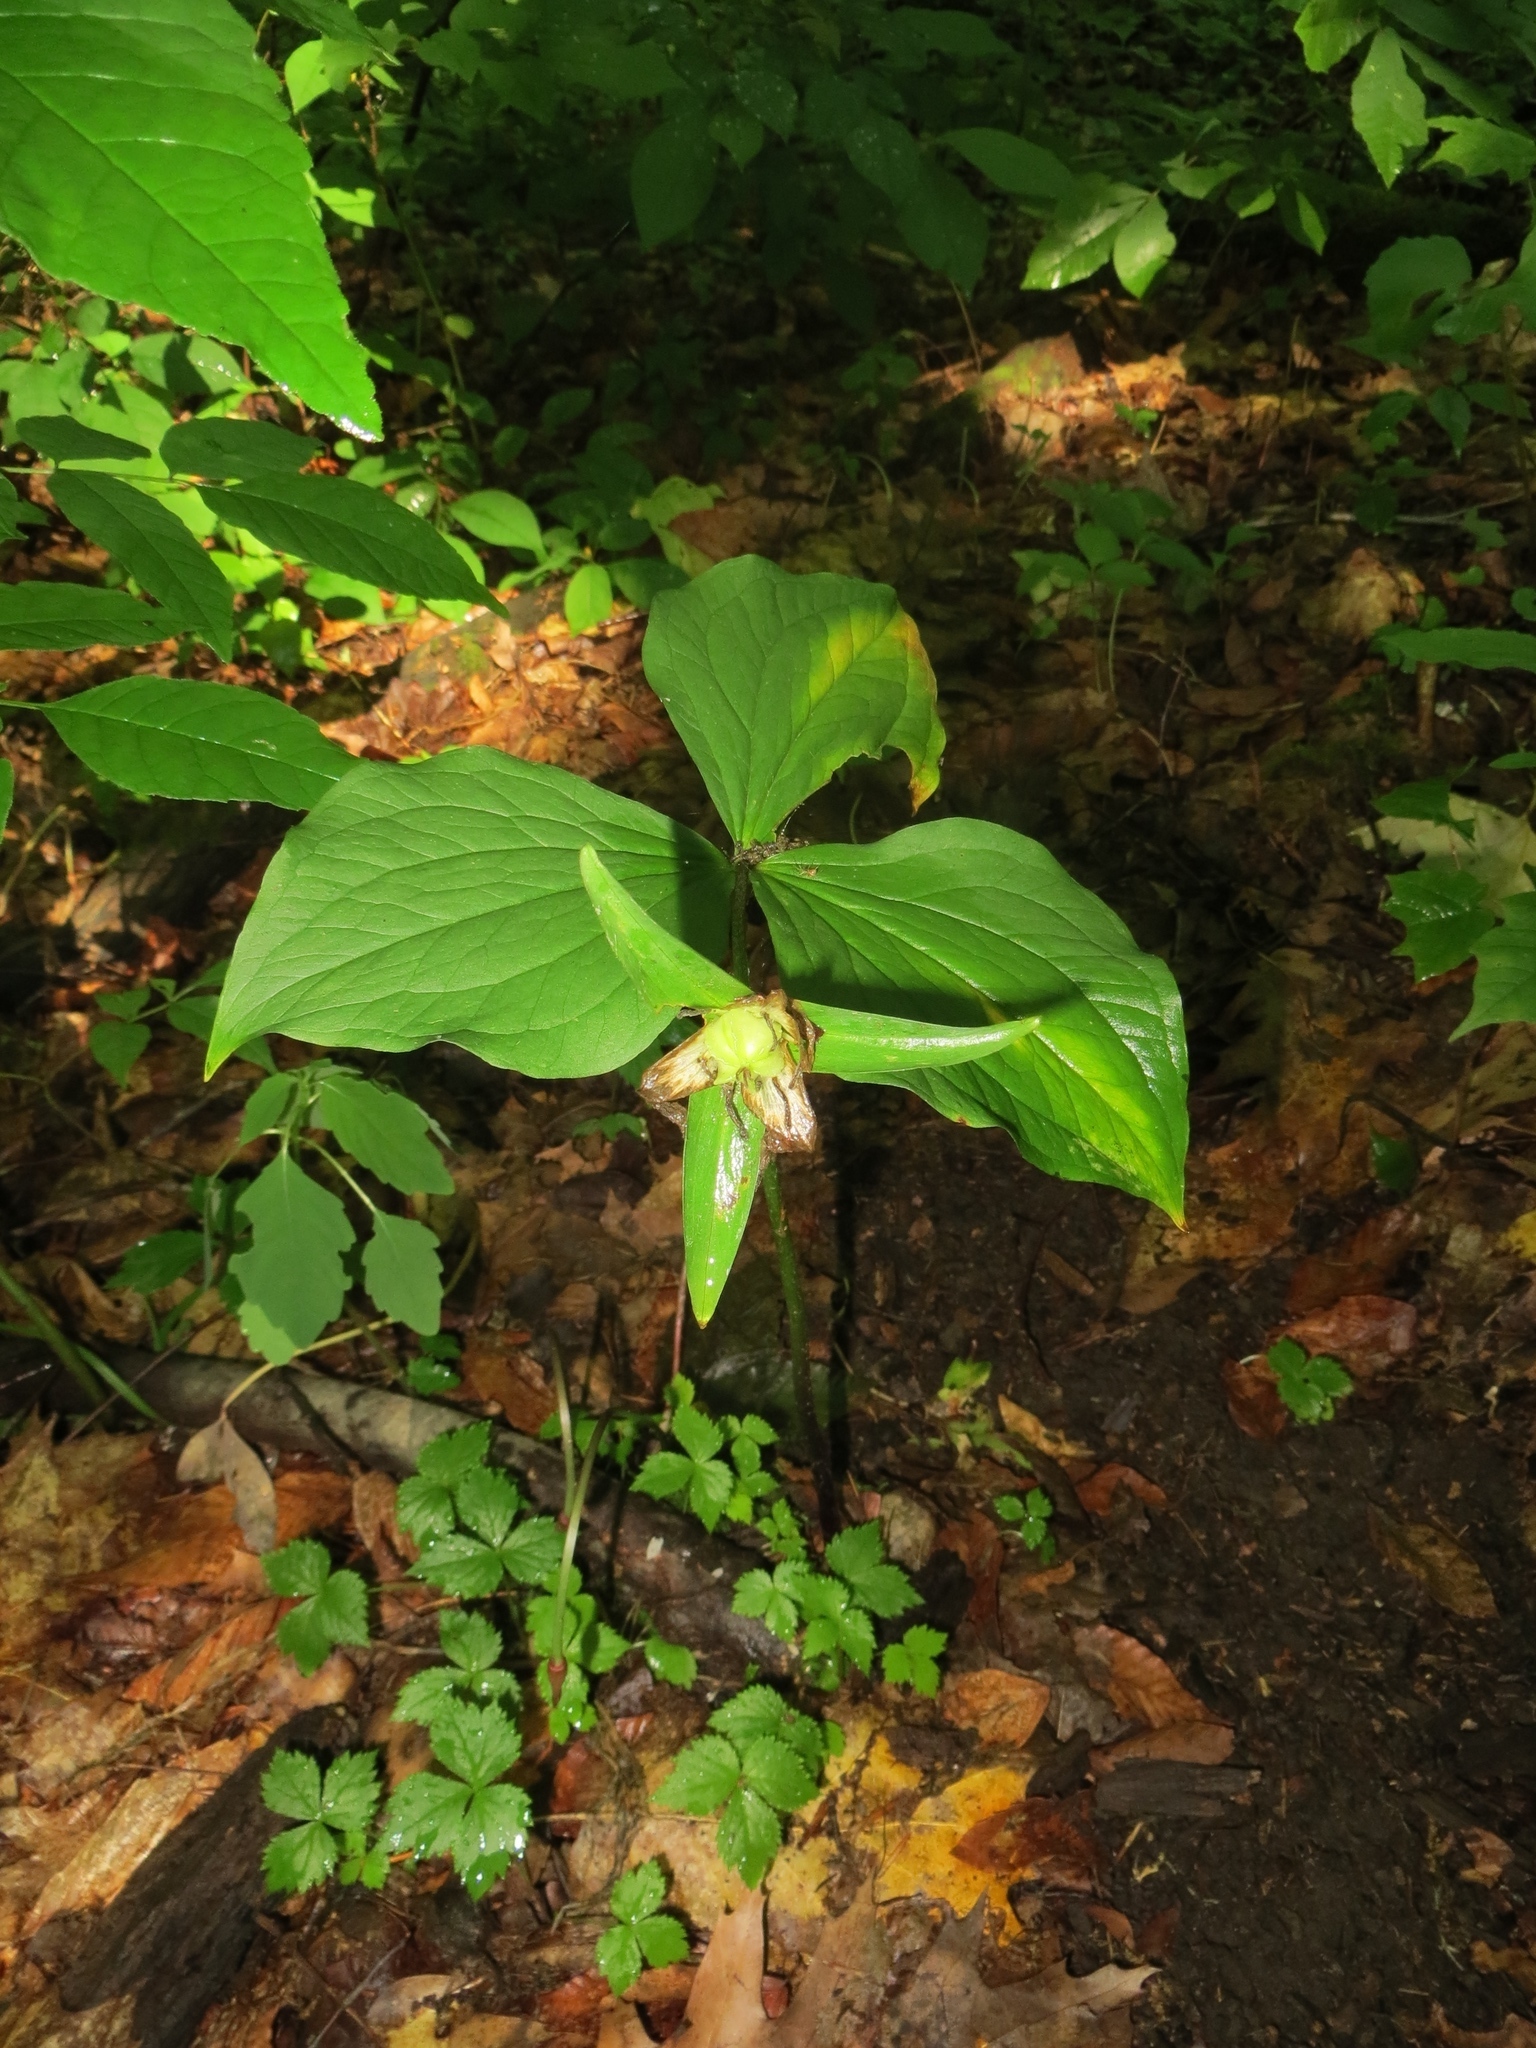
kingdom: Plantae
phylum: Tracheophyta
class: Liliopsida
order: Liliales
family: Melanthiaceae
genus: Trillium
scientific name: Trillium grandiflorum
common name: Great white trillium
